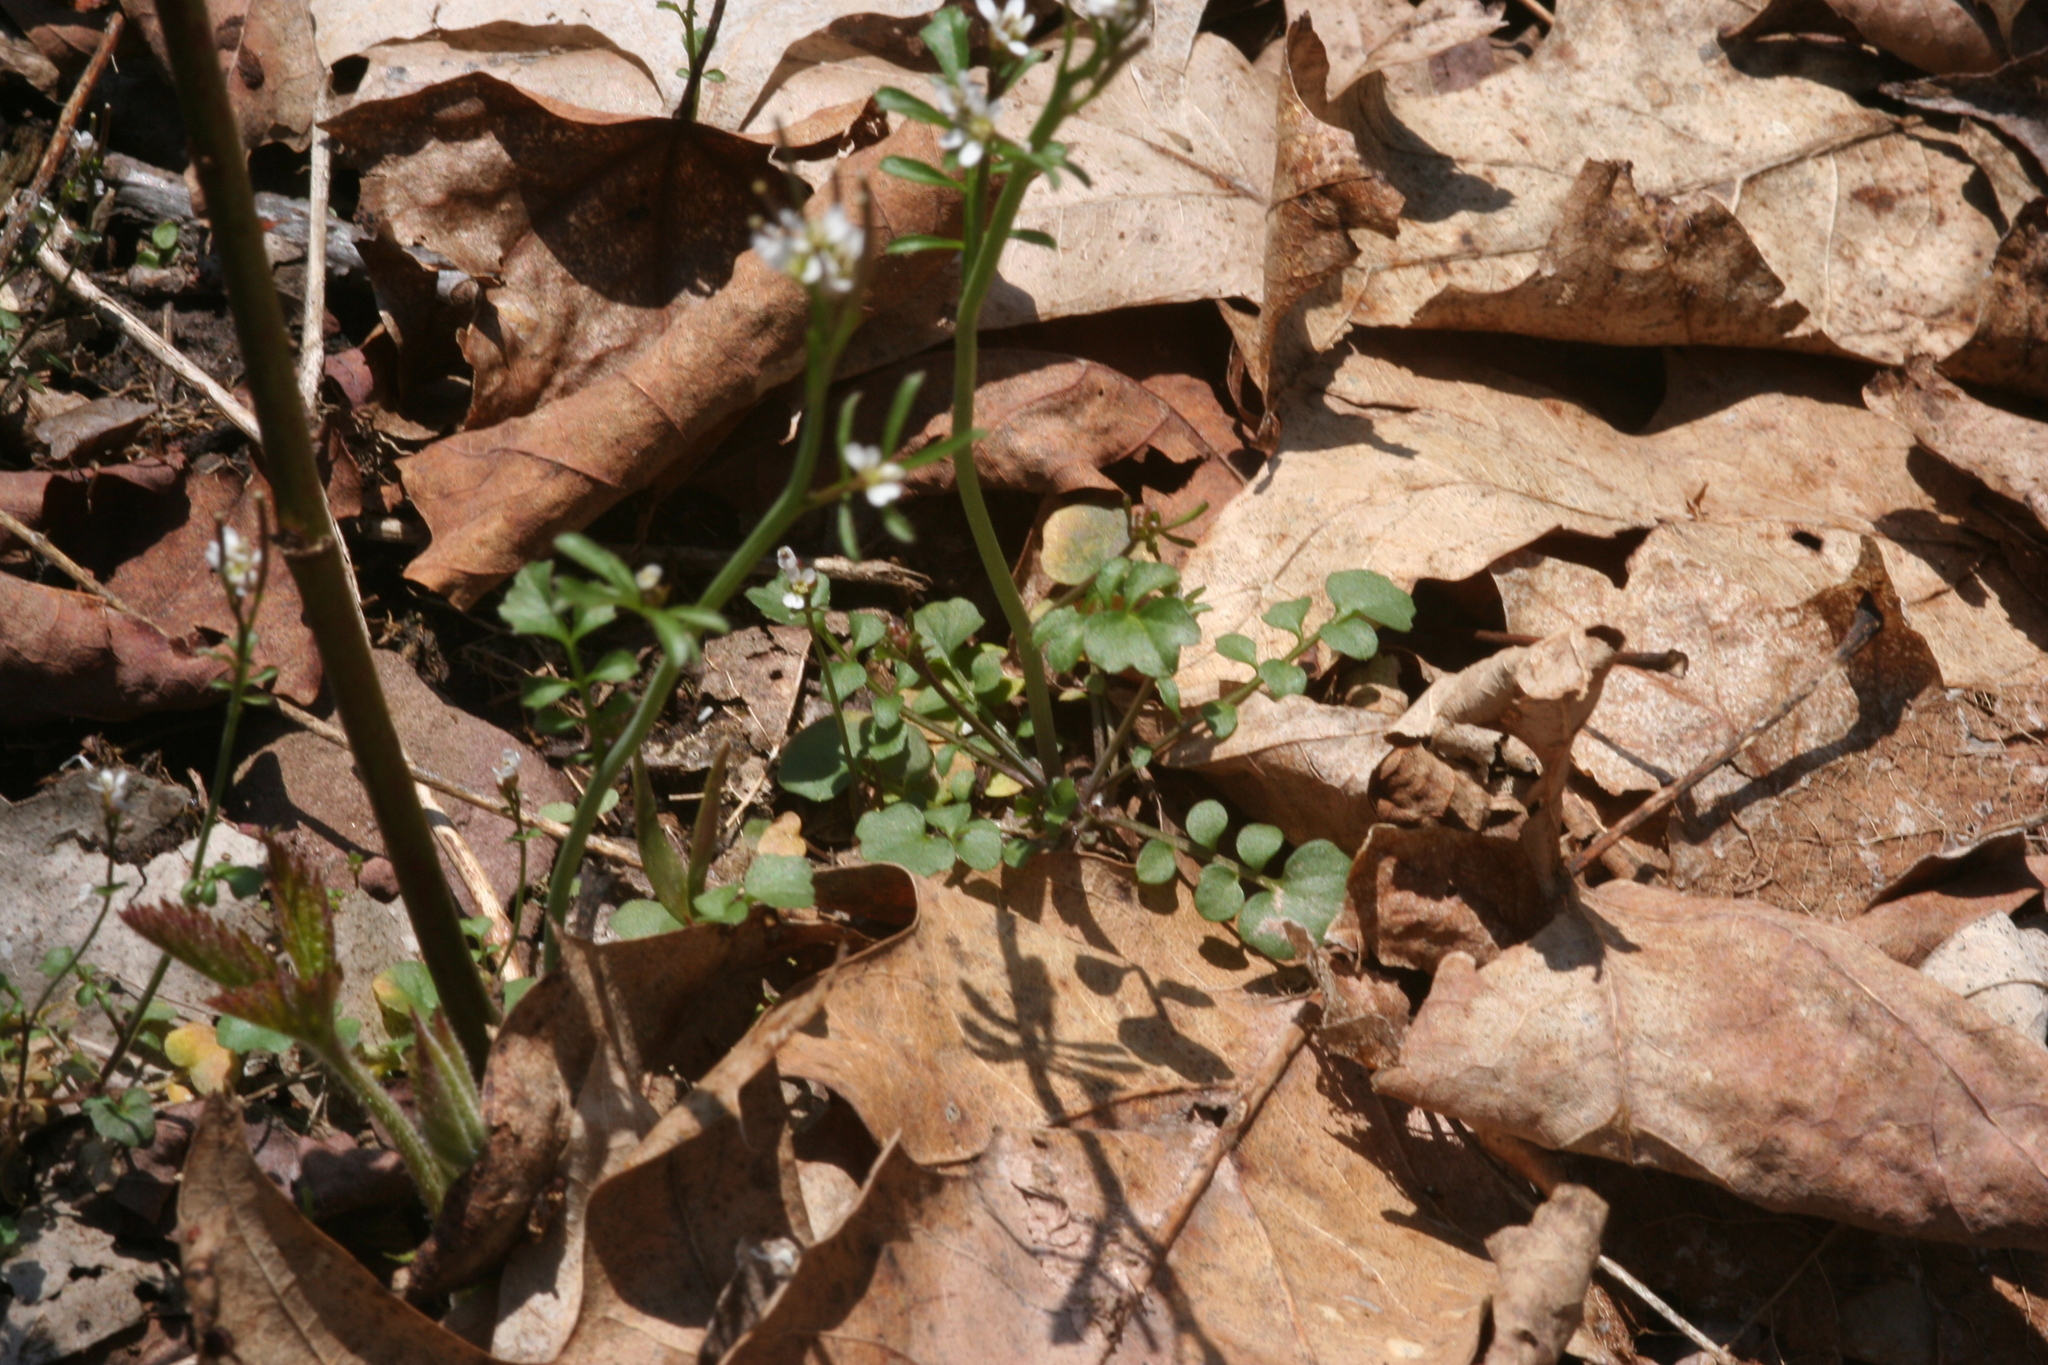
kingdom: Plantae
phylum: Tracheophyta
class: Magnoliopsida
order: Brassicales
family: Brassicaceae
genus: Cardamine
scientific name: Cardamine hirsuta
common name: Hairy bittercress
